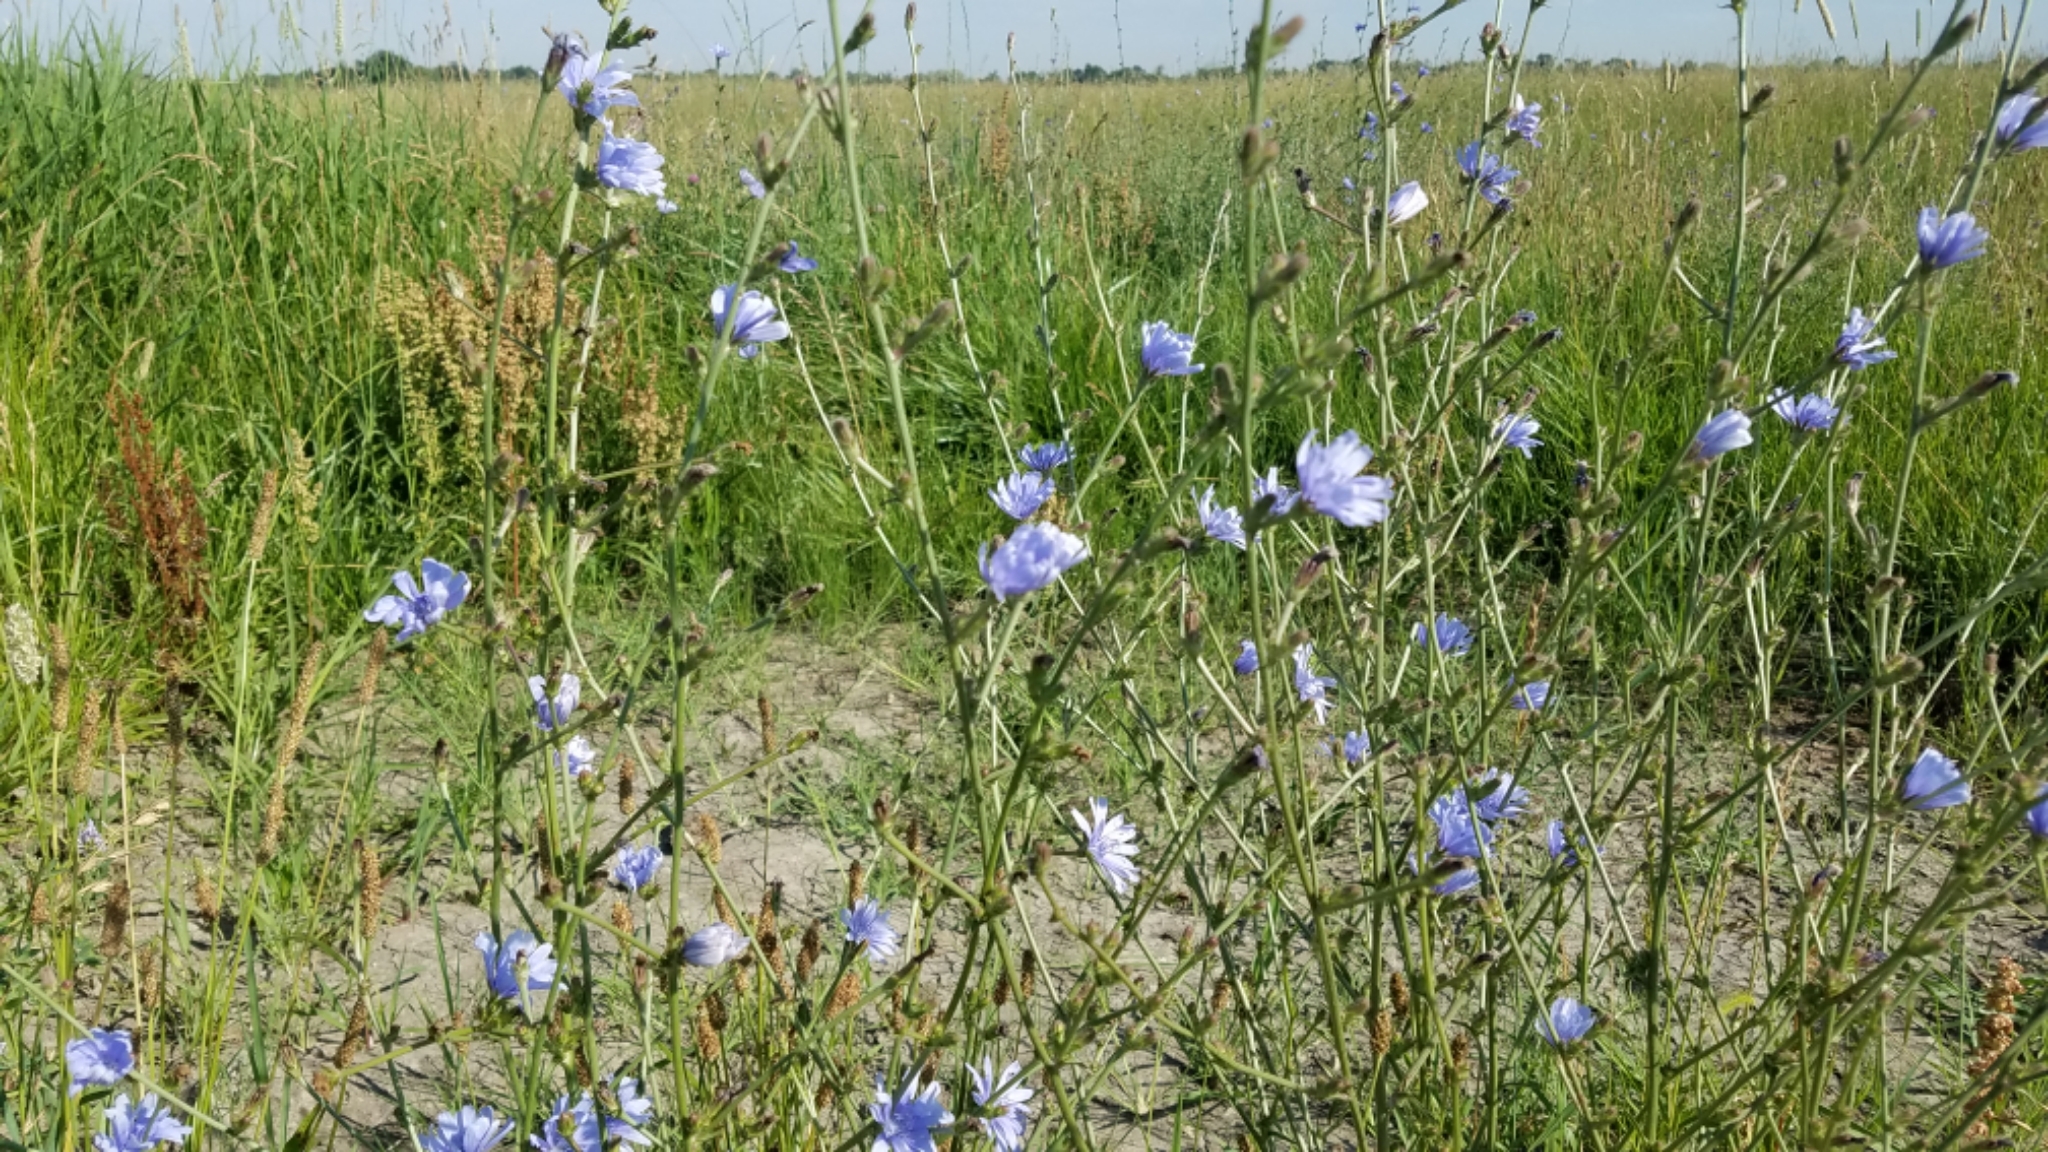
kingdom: Plantae
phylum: Tracheophyta
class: Magnoliopsida
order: Asterales
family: Asteraceae
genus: Cichorium
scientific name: Cichorium intybus
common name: Chicory
